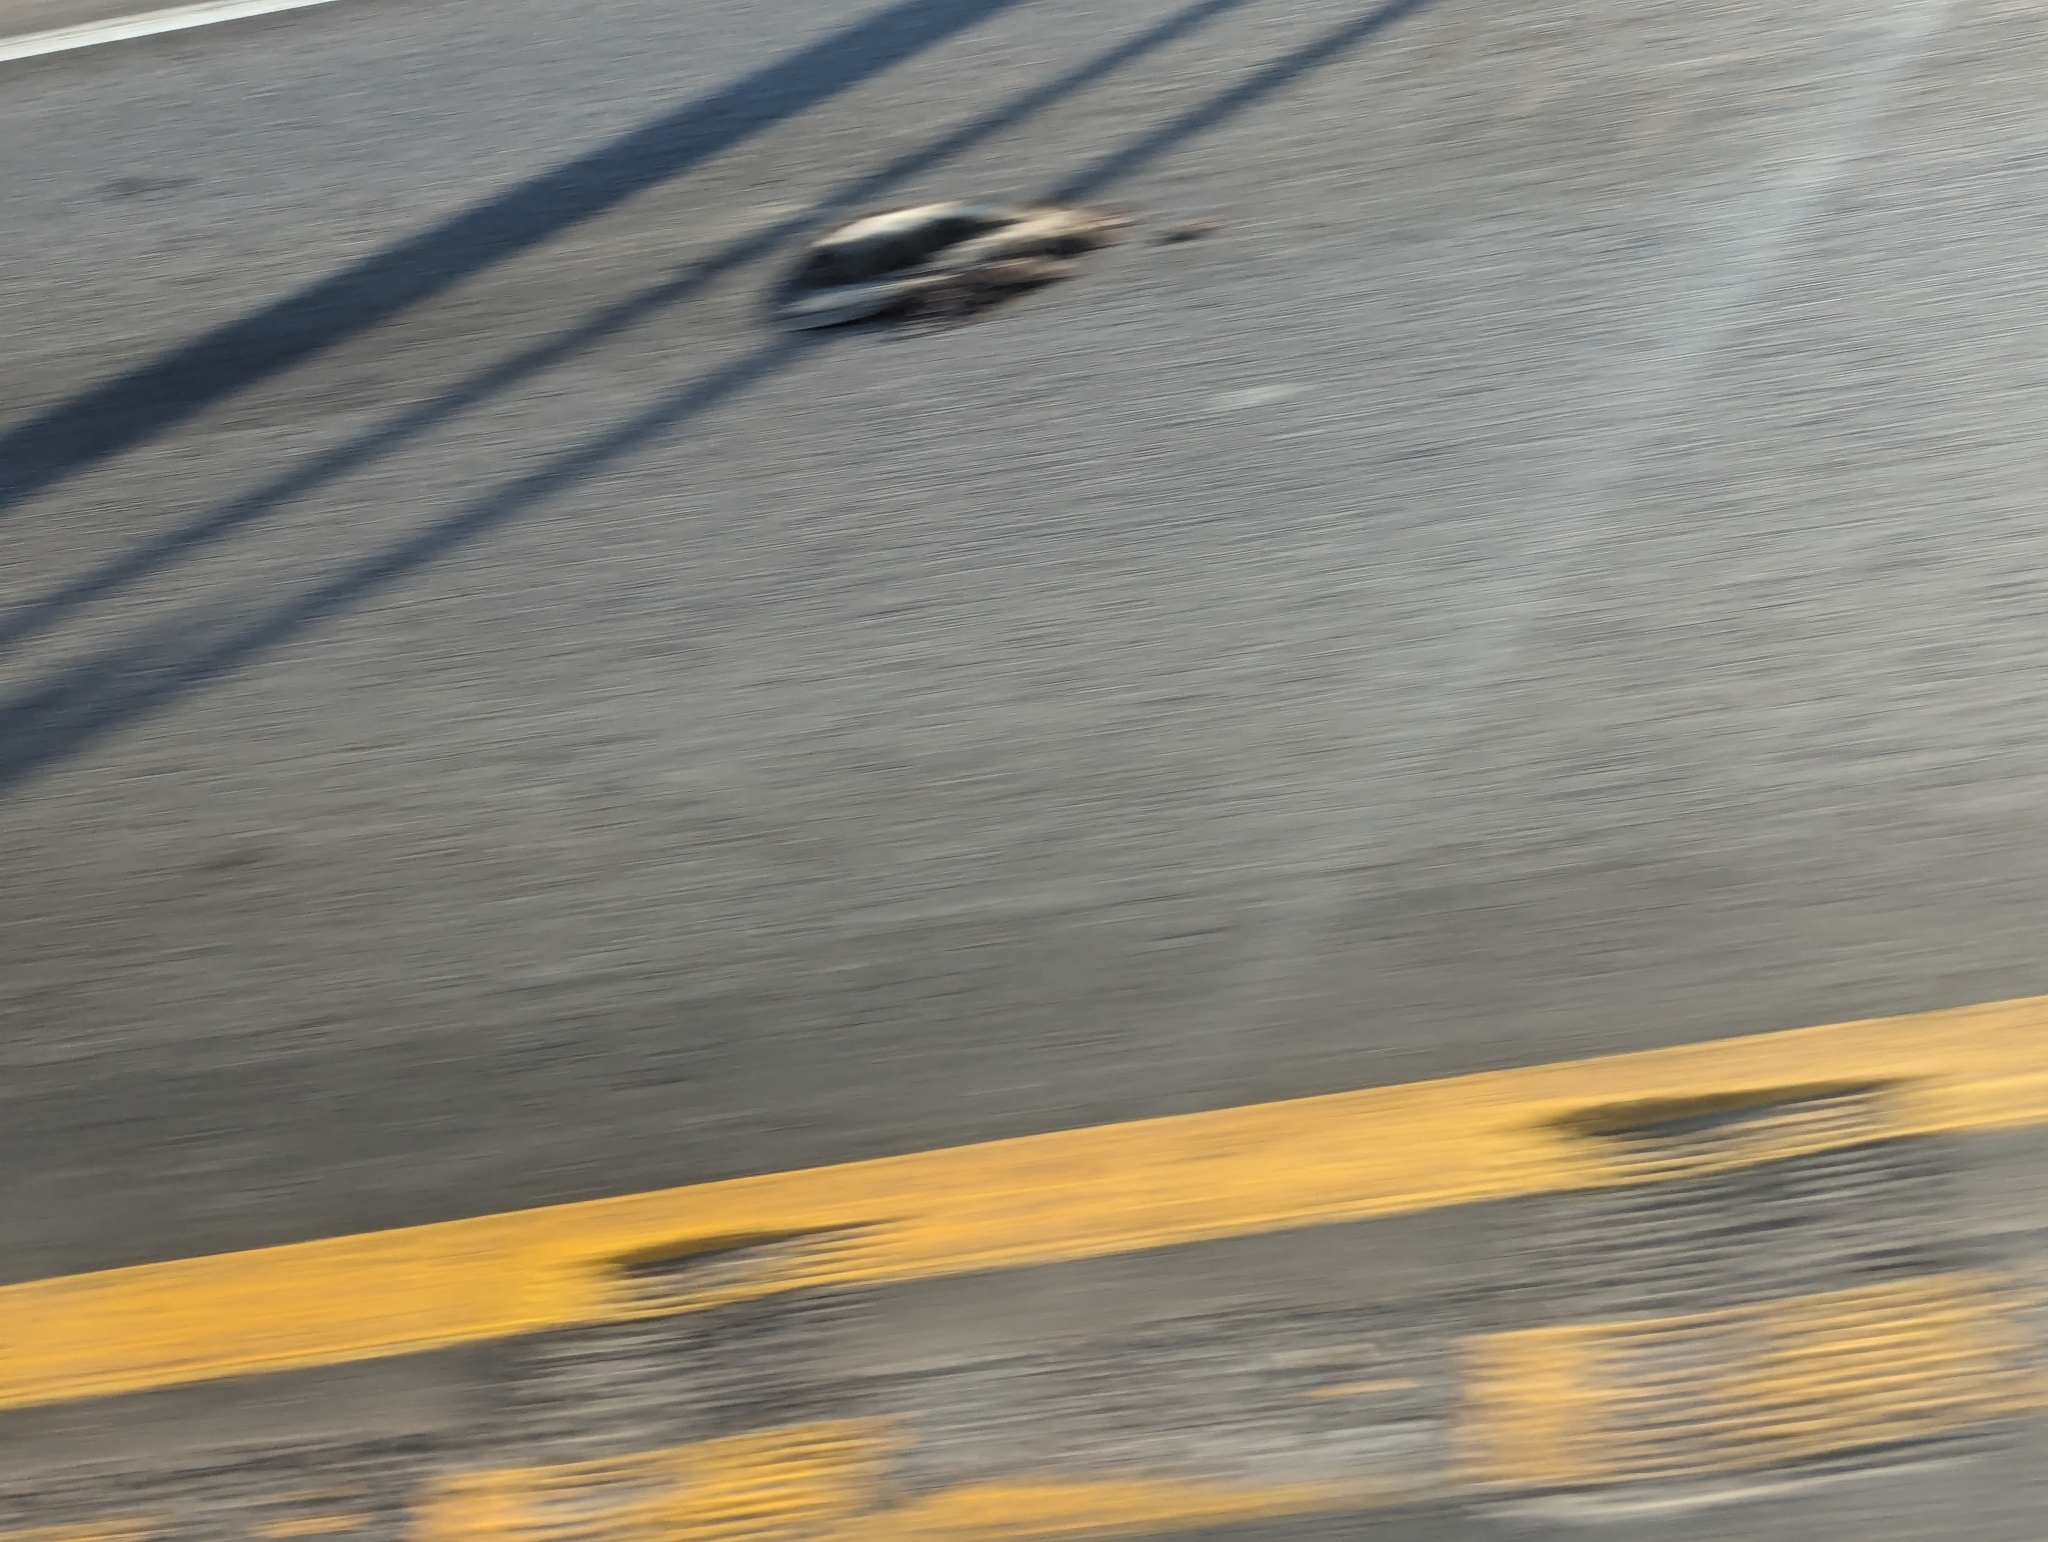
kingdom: Animalia
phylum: Chordata
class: Mammalia
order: Carnivora
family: Mephitidae
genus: Mephitis
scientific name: Mephitis mephitis
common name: Striped skunk
